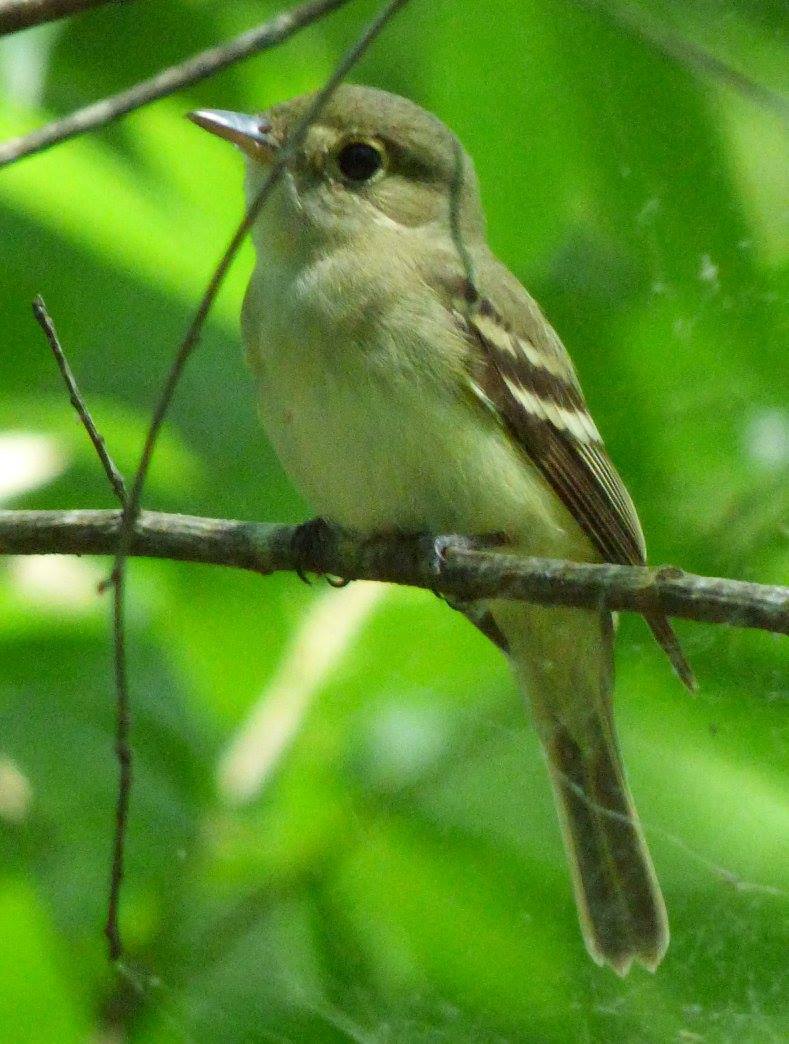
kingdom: Animalia
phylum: Chordata
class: Aves
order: Passeriformes
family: Tyrannidae
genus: Empidonax
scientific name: Empidonax virescens
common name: Acadian flycatcher
